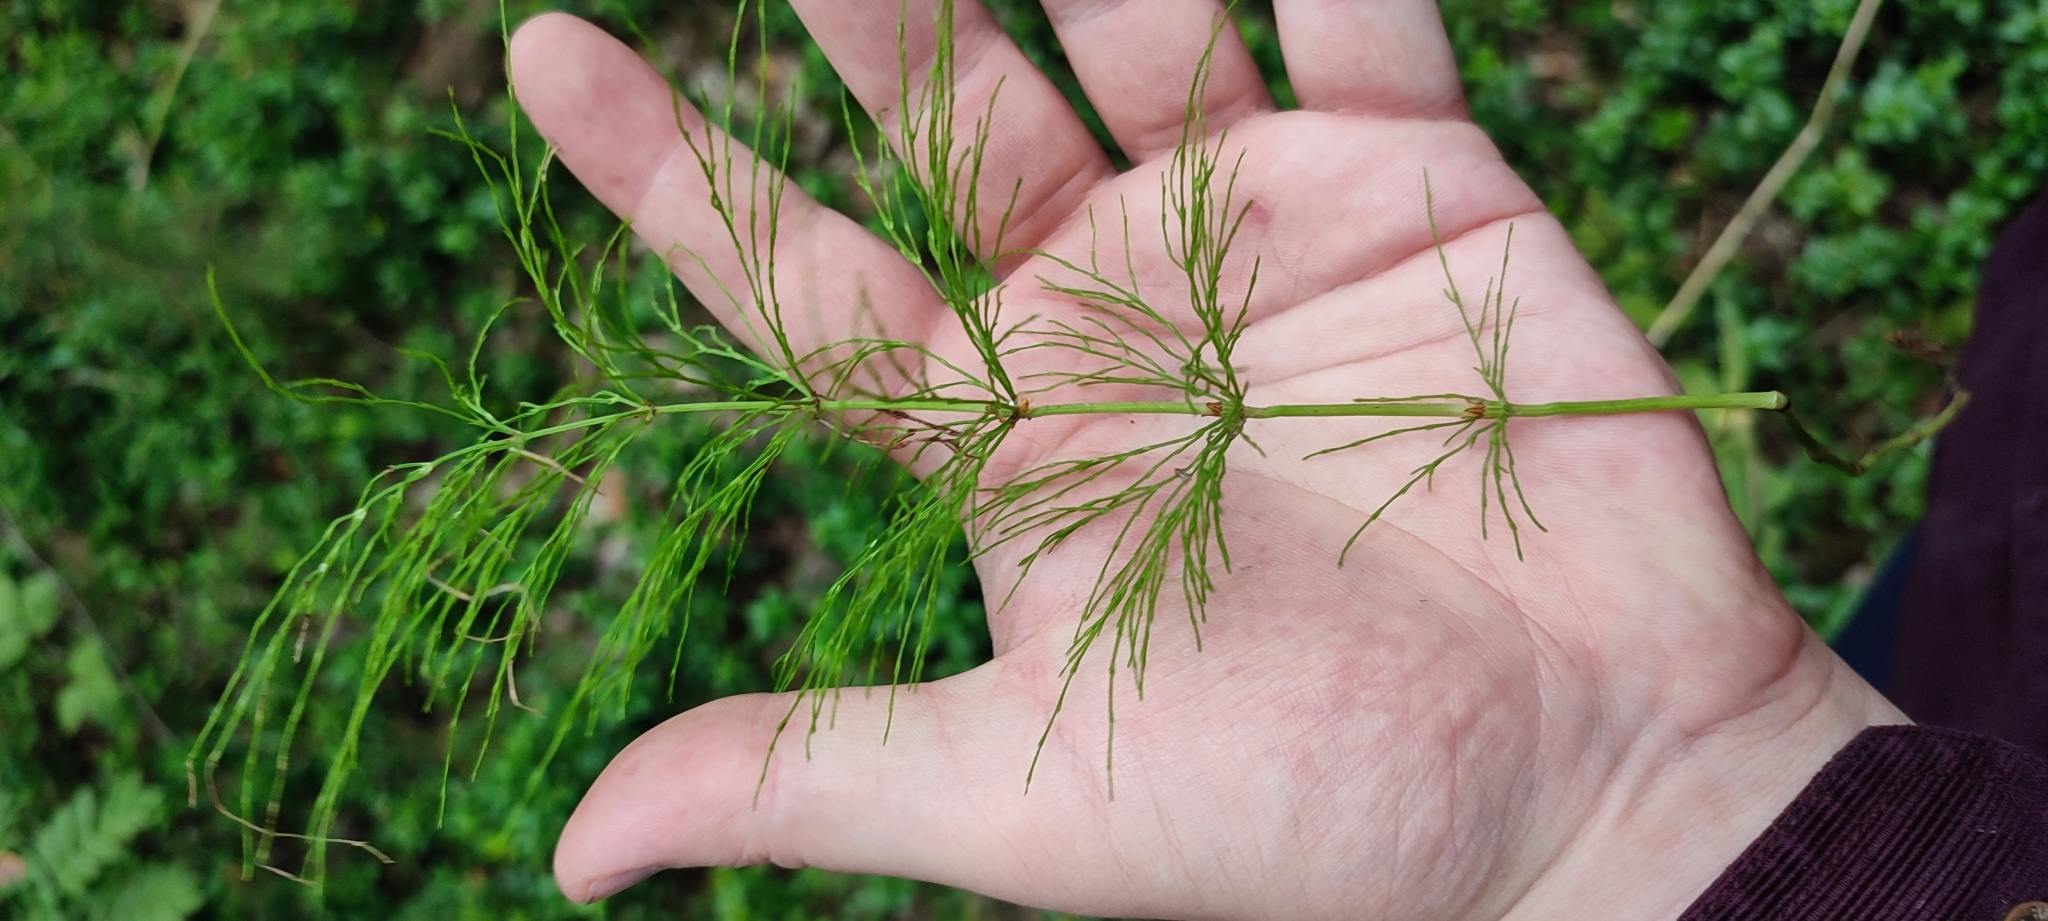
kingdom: Plantae
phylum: Tracheophyta
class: Polypodiopsida
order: Equisetales
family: Equisetaceae
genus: Equisetum
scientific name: Equisetum sylvaticum
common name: Wood horsetail
